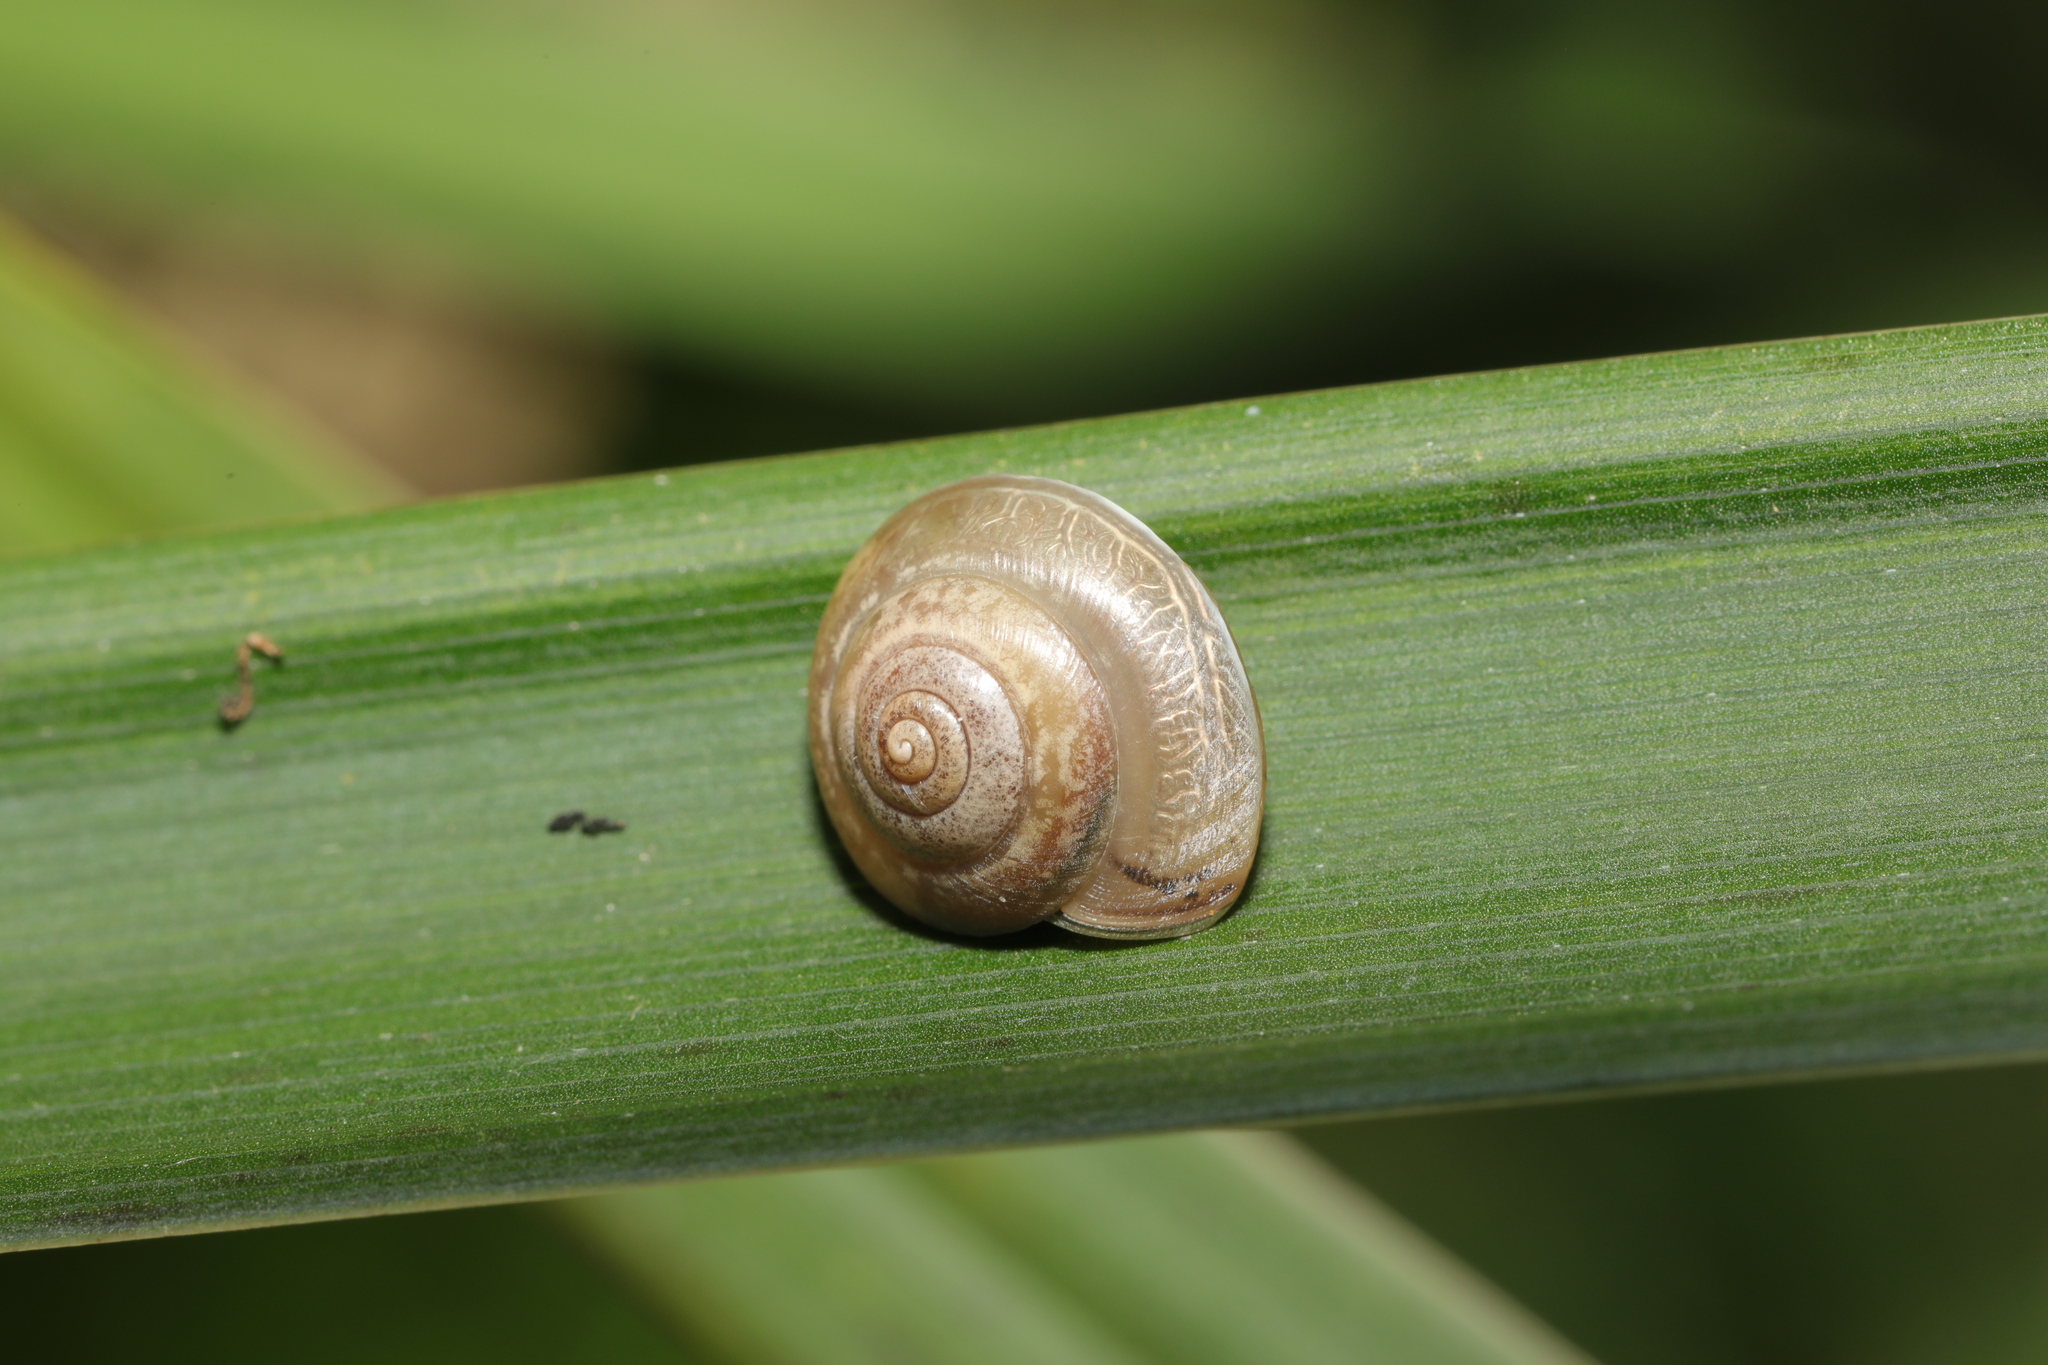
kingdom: Animalia
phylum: Mollusca
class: Gastropoda
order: Stylommatophora
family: Hygromiidae
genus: Hygromia
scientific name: Hygromia cinctella
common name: Girdled snail
